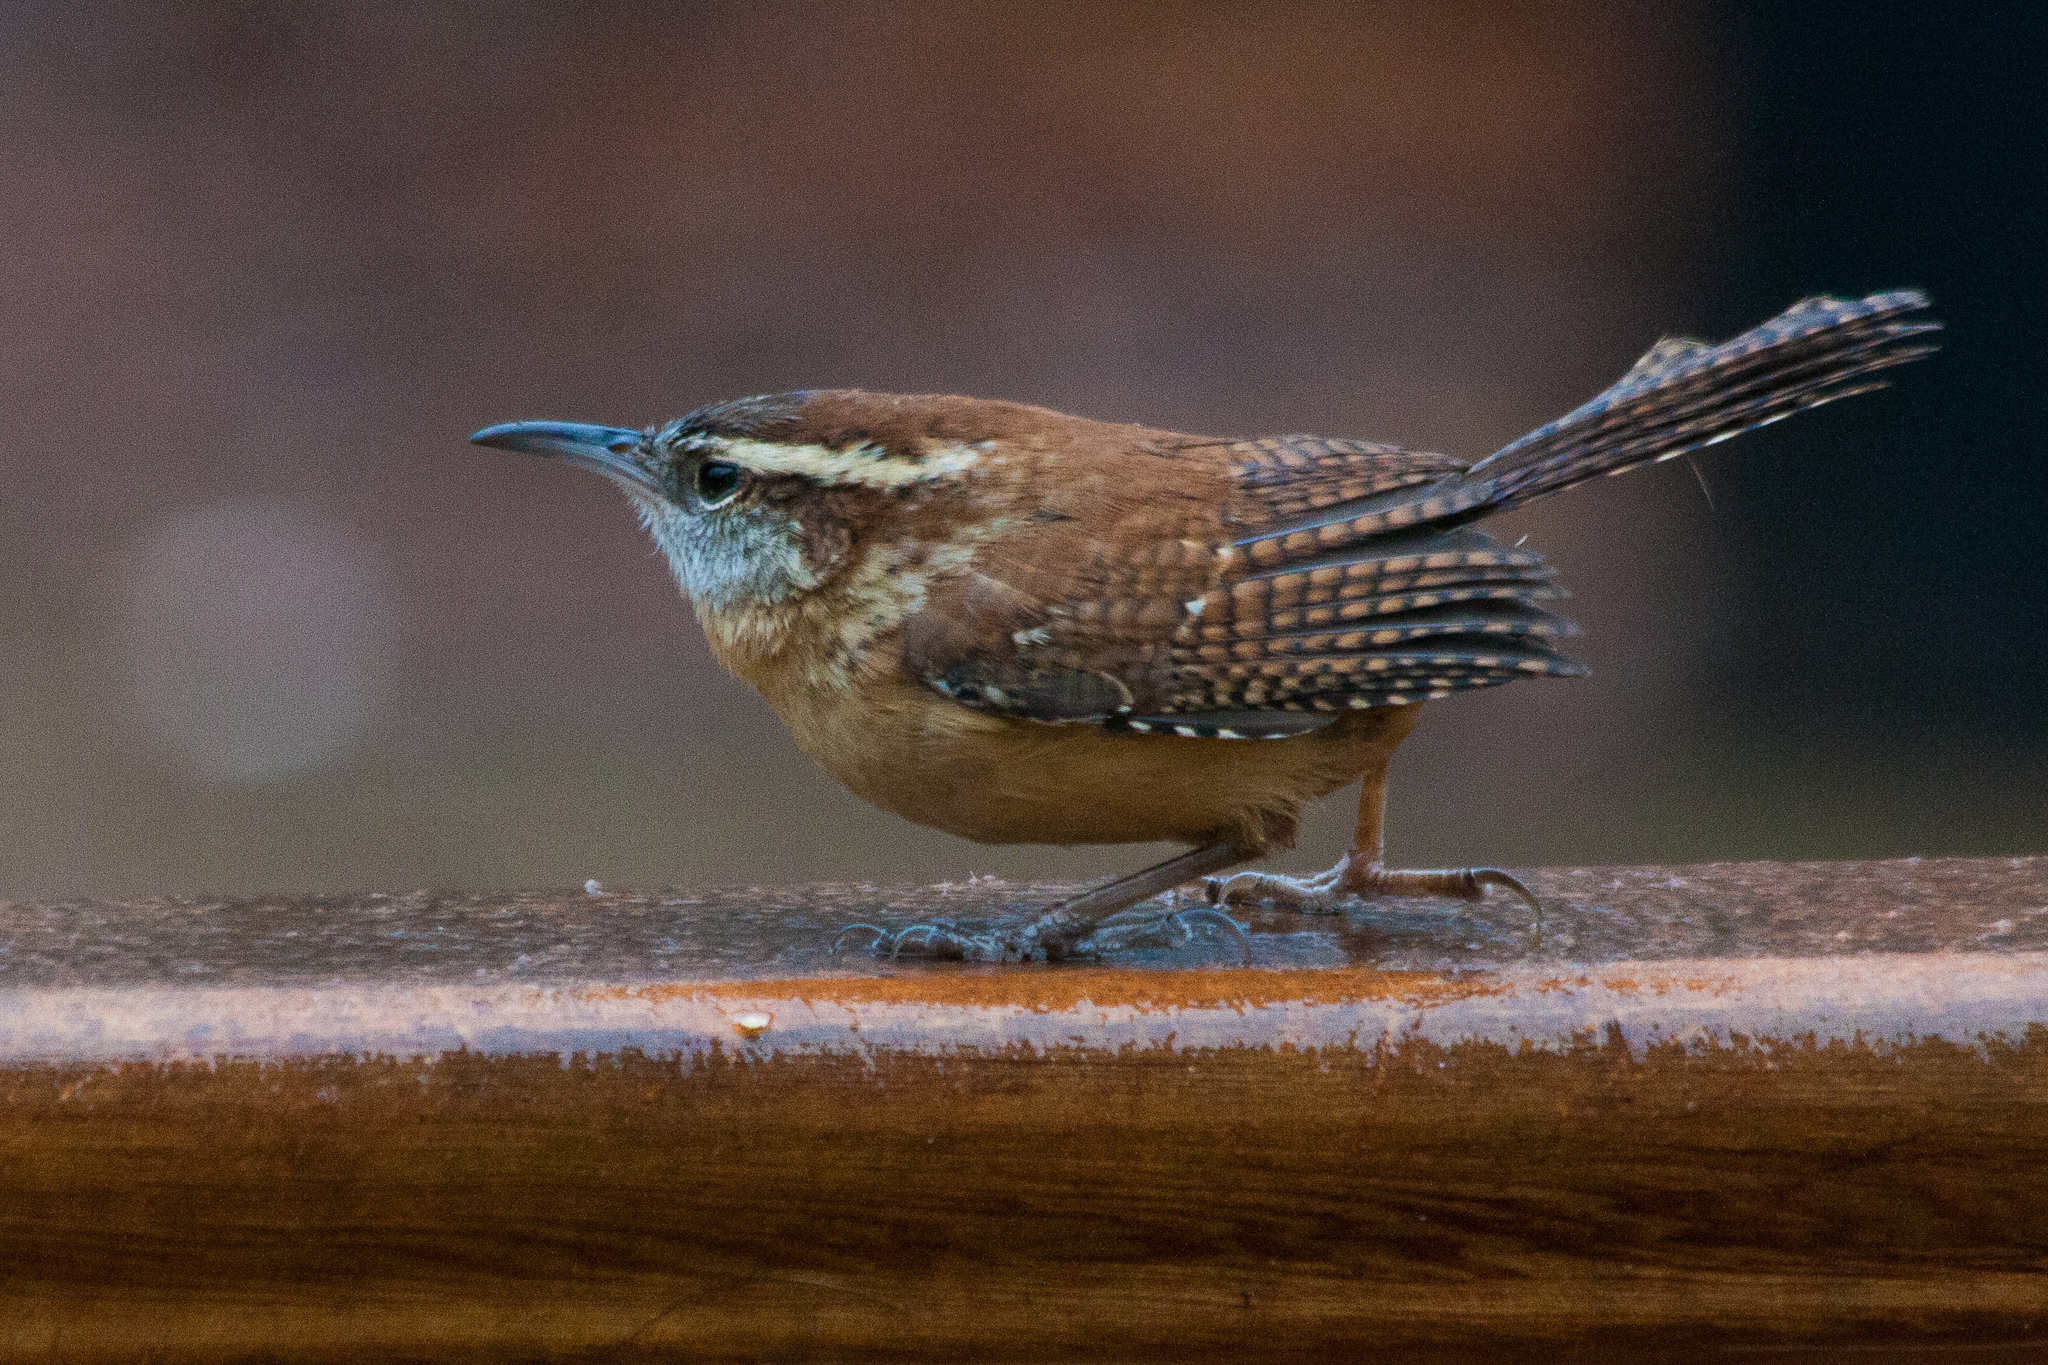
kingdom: Animalia
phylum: Chordata
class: Aves
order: Passeriformes
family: Troglodytidae
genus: Thryothorus
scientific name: Thryothorus ludovicianus
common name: Carolina wren
